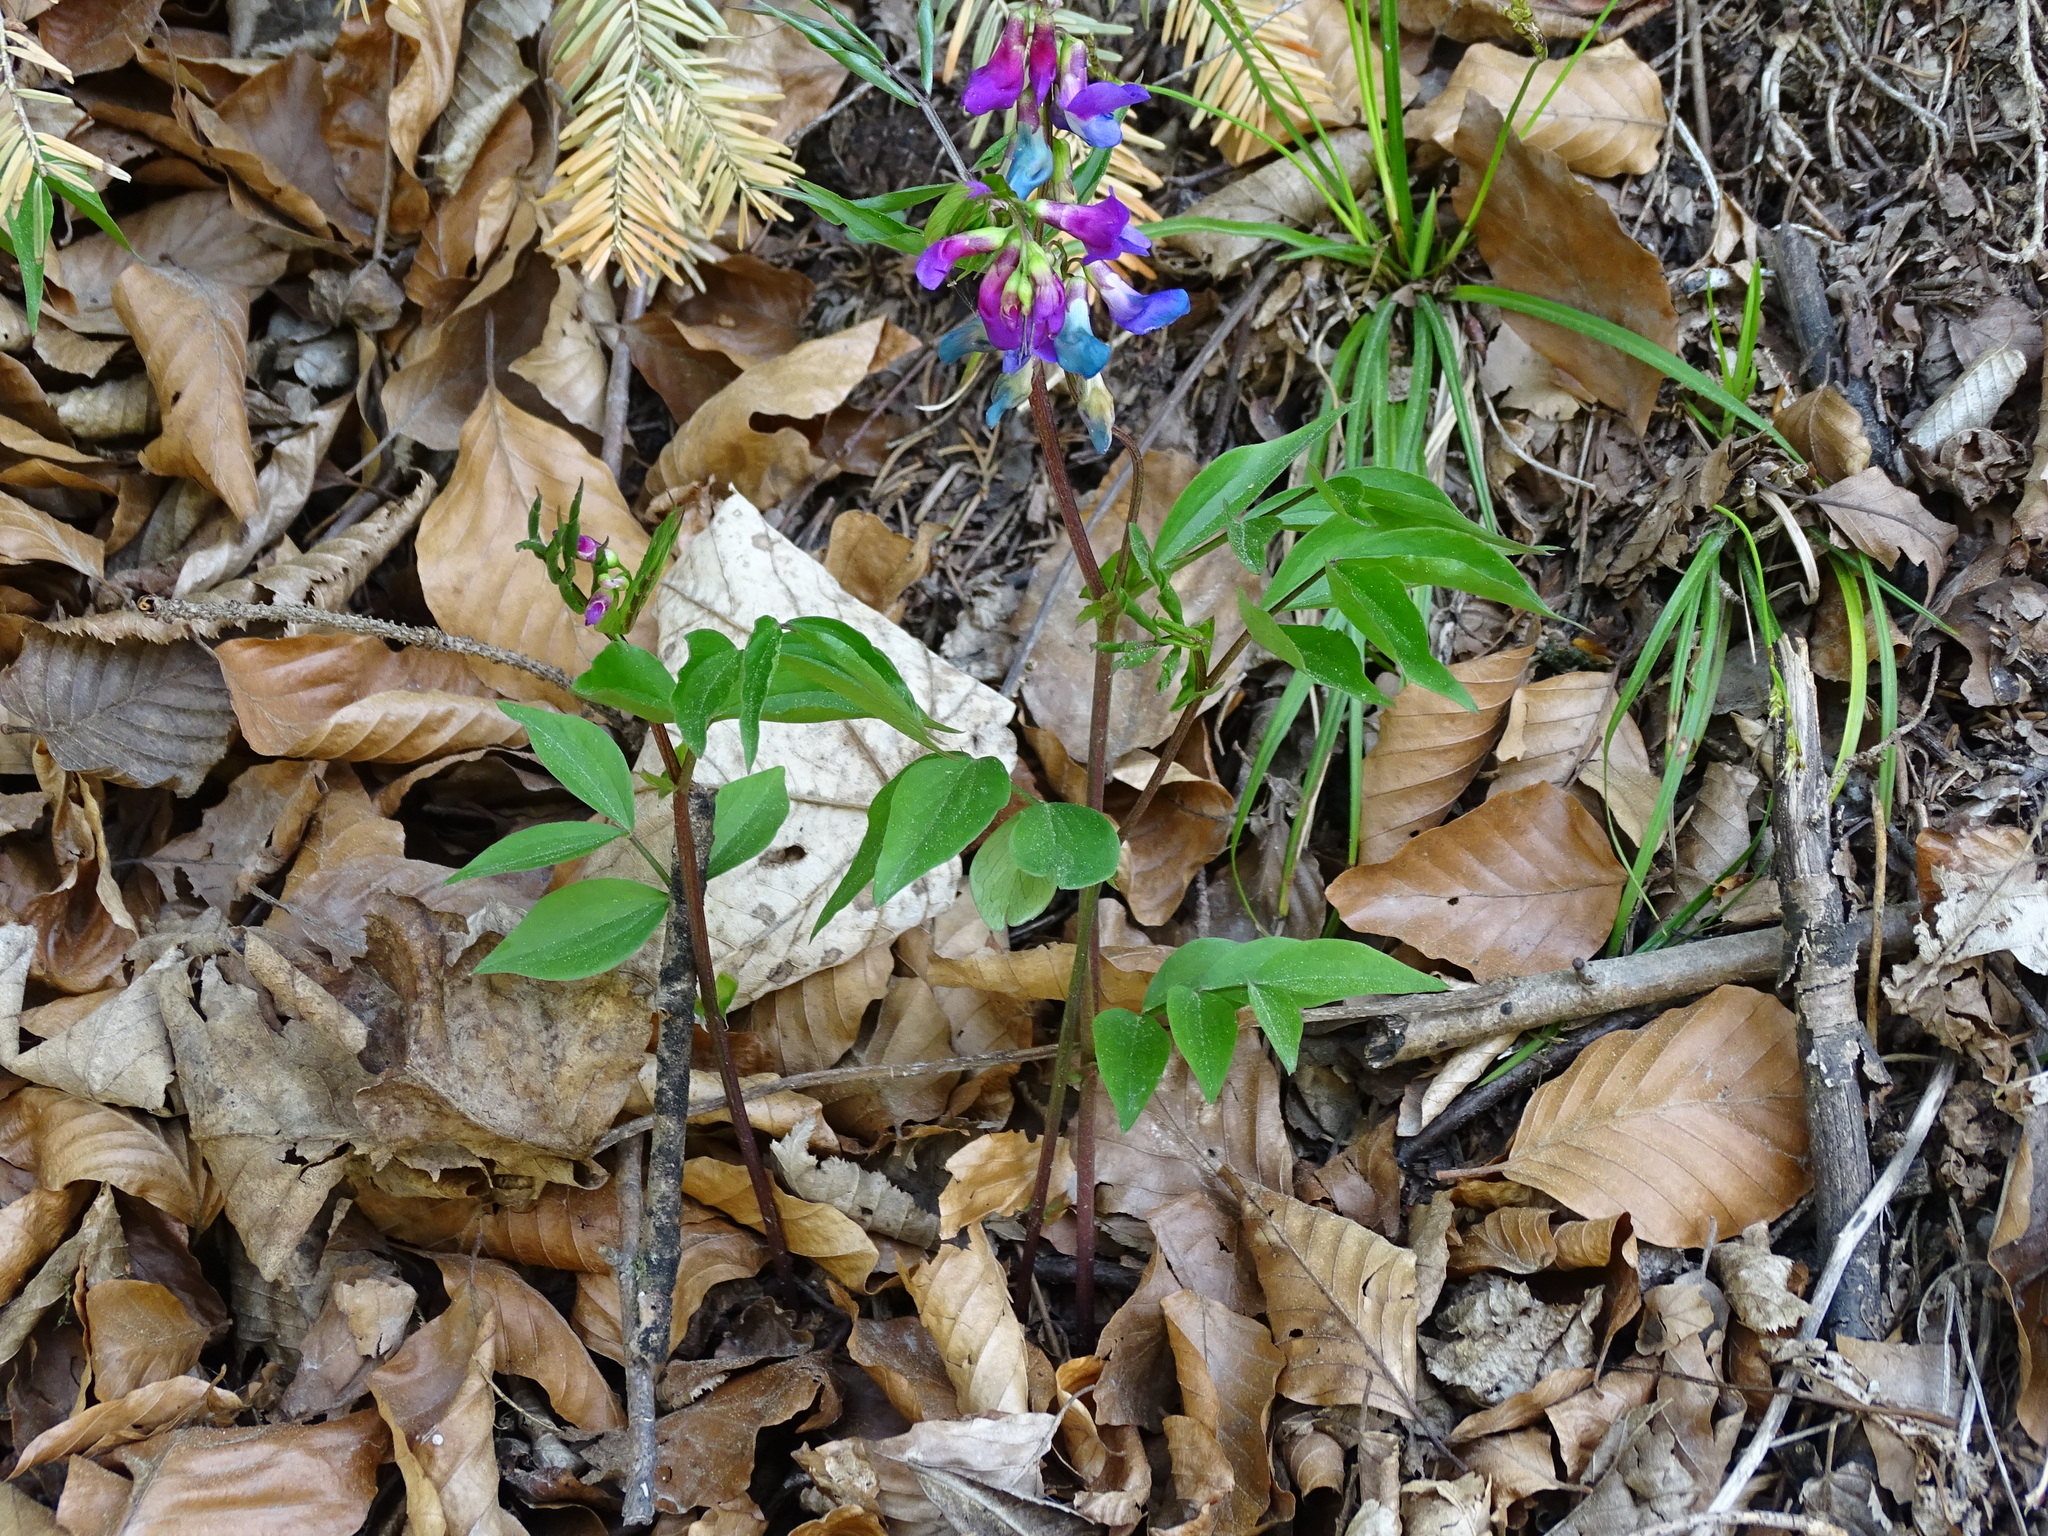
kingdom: Plantae
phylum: Tracheophyta
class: Magnoliopsida
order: Fabales
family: Fabaceae
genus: Lathyrus
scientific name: Lathyrus vernus
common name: Spring pea
